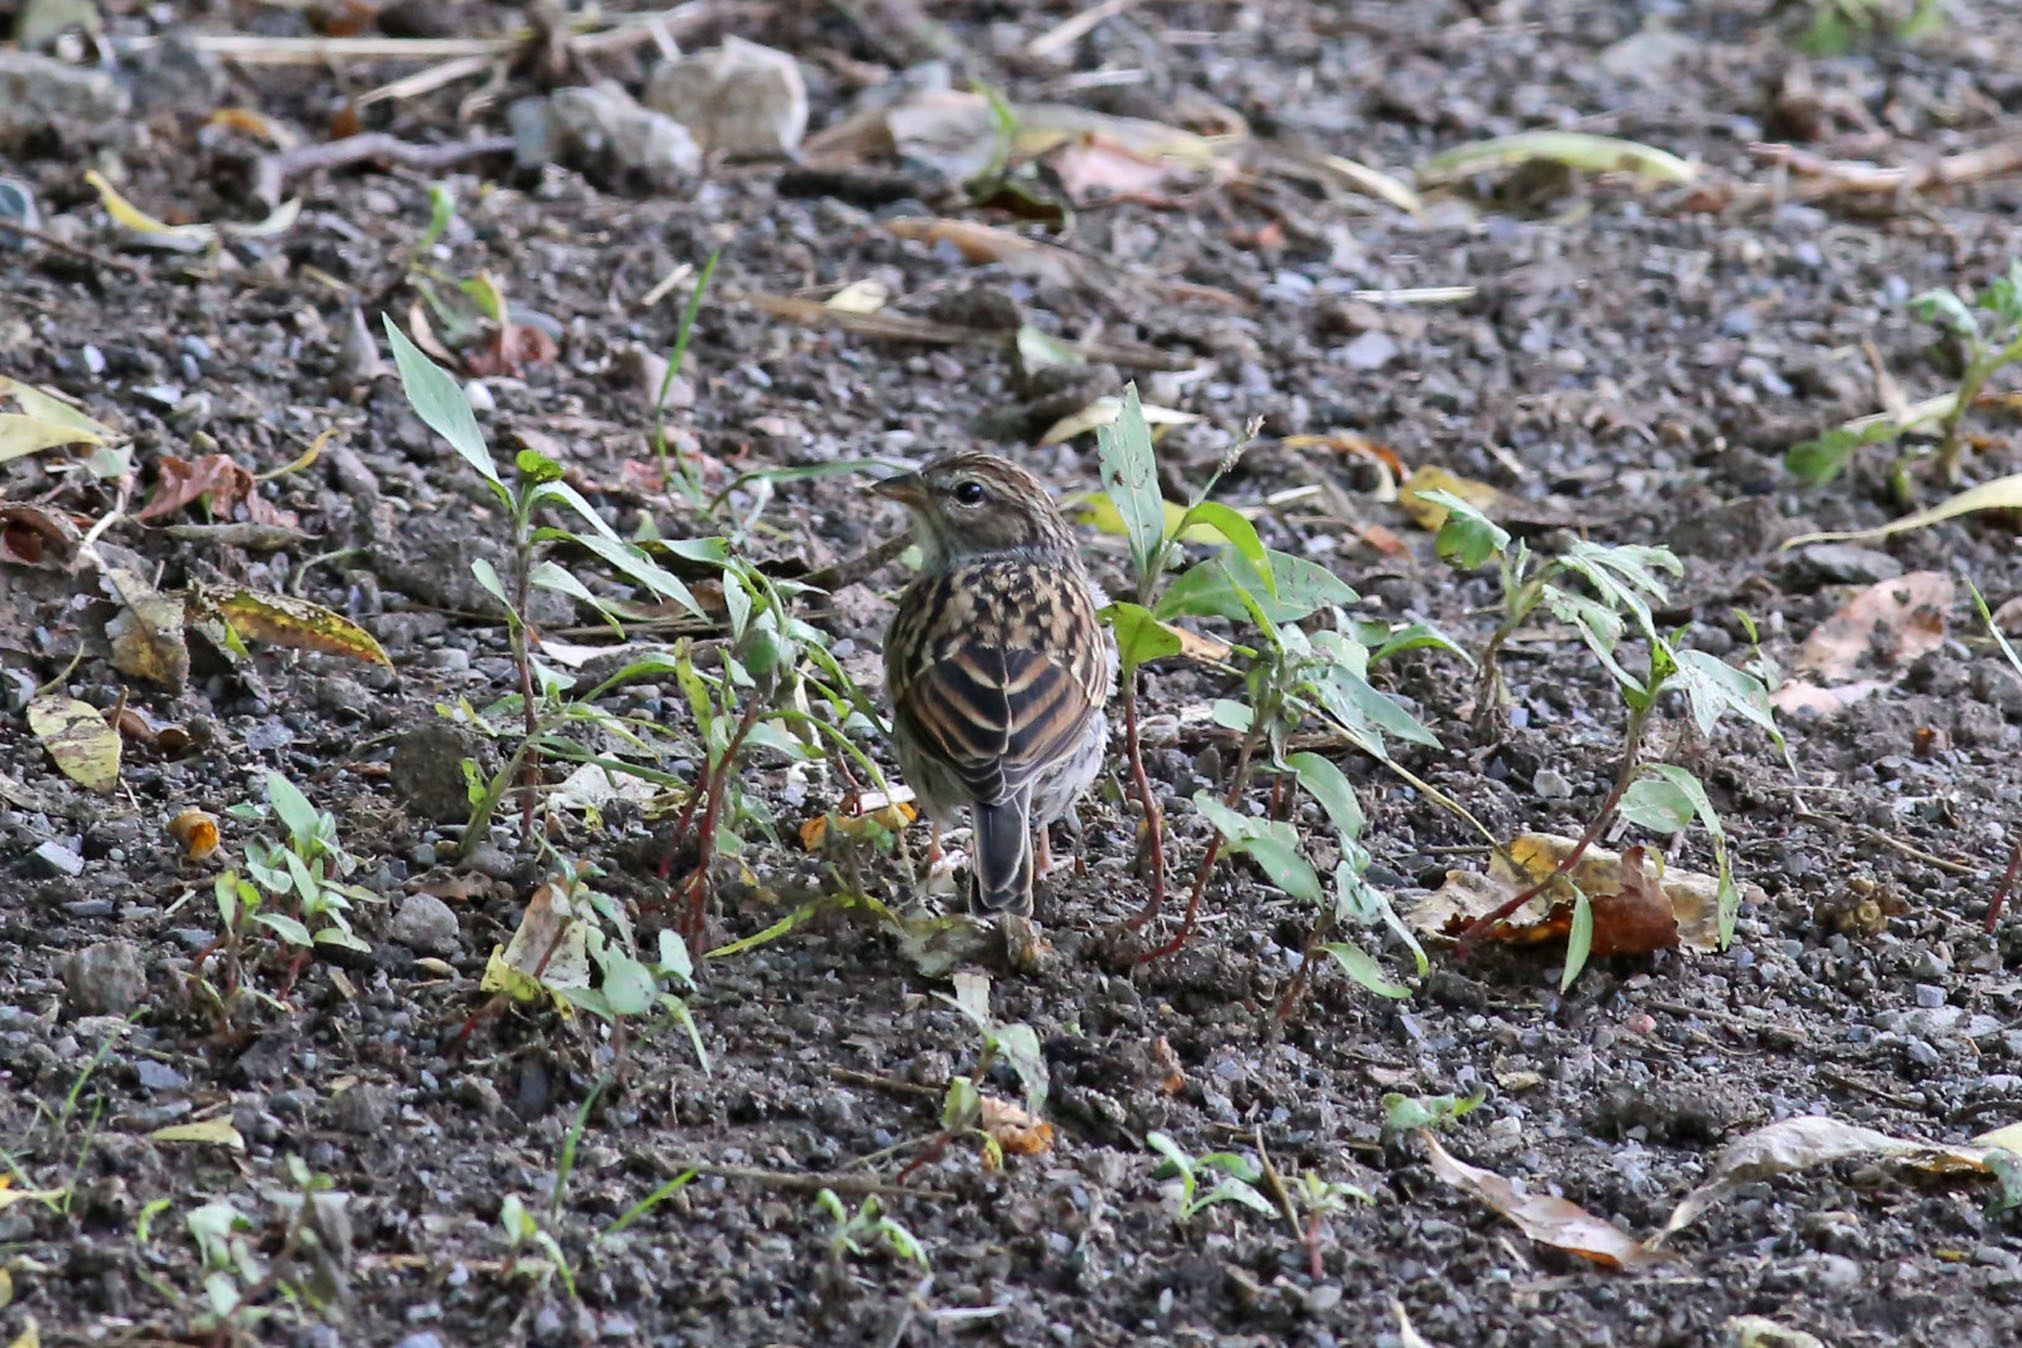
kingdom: Animalia
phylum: Chordata
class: Aves
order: Passeriformes
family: Passerellidae
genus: Spizella
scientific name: Spizella passerina
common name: Chipping sparrow
